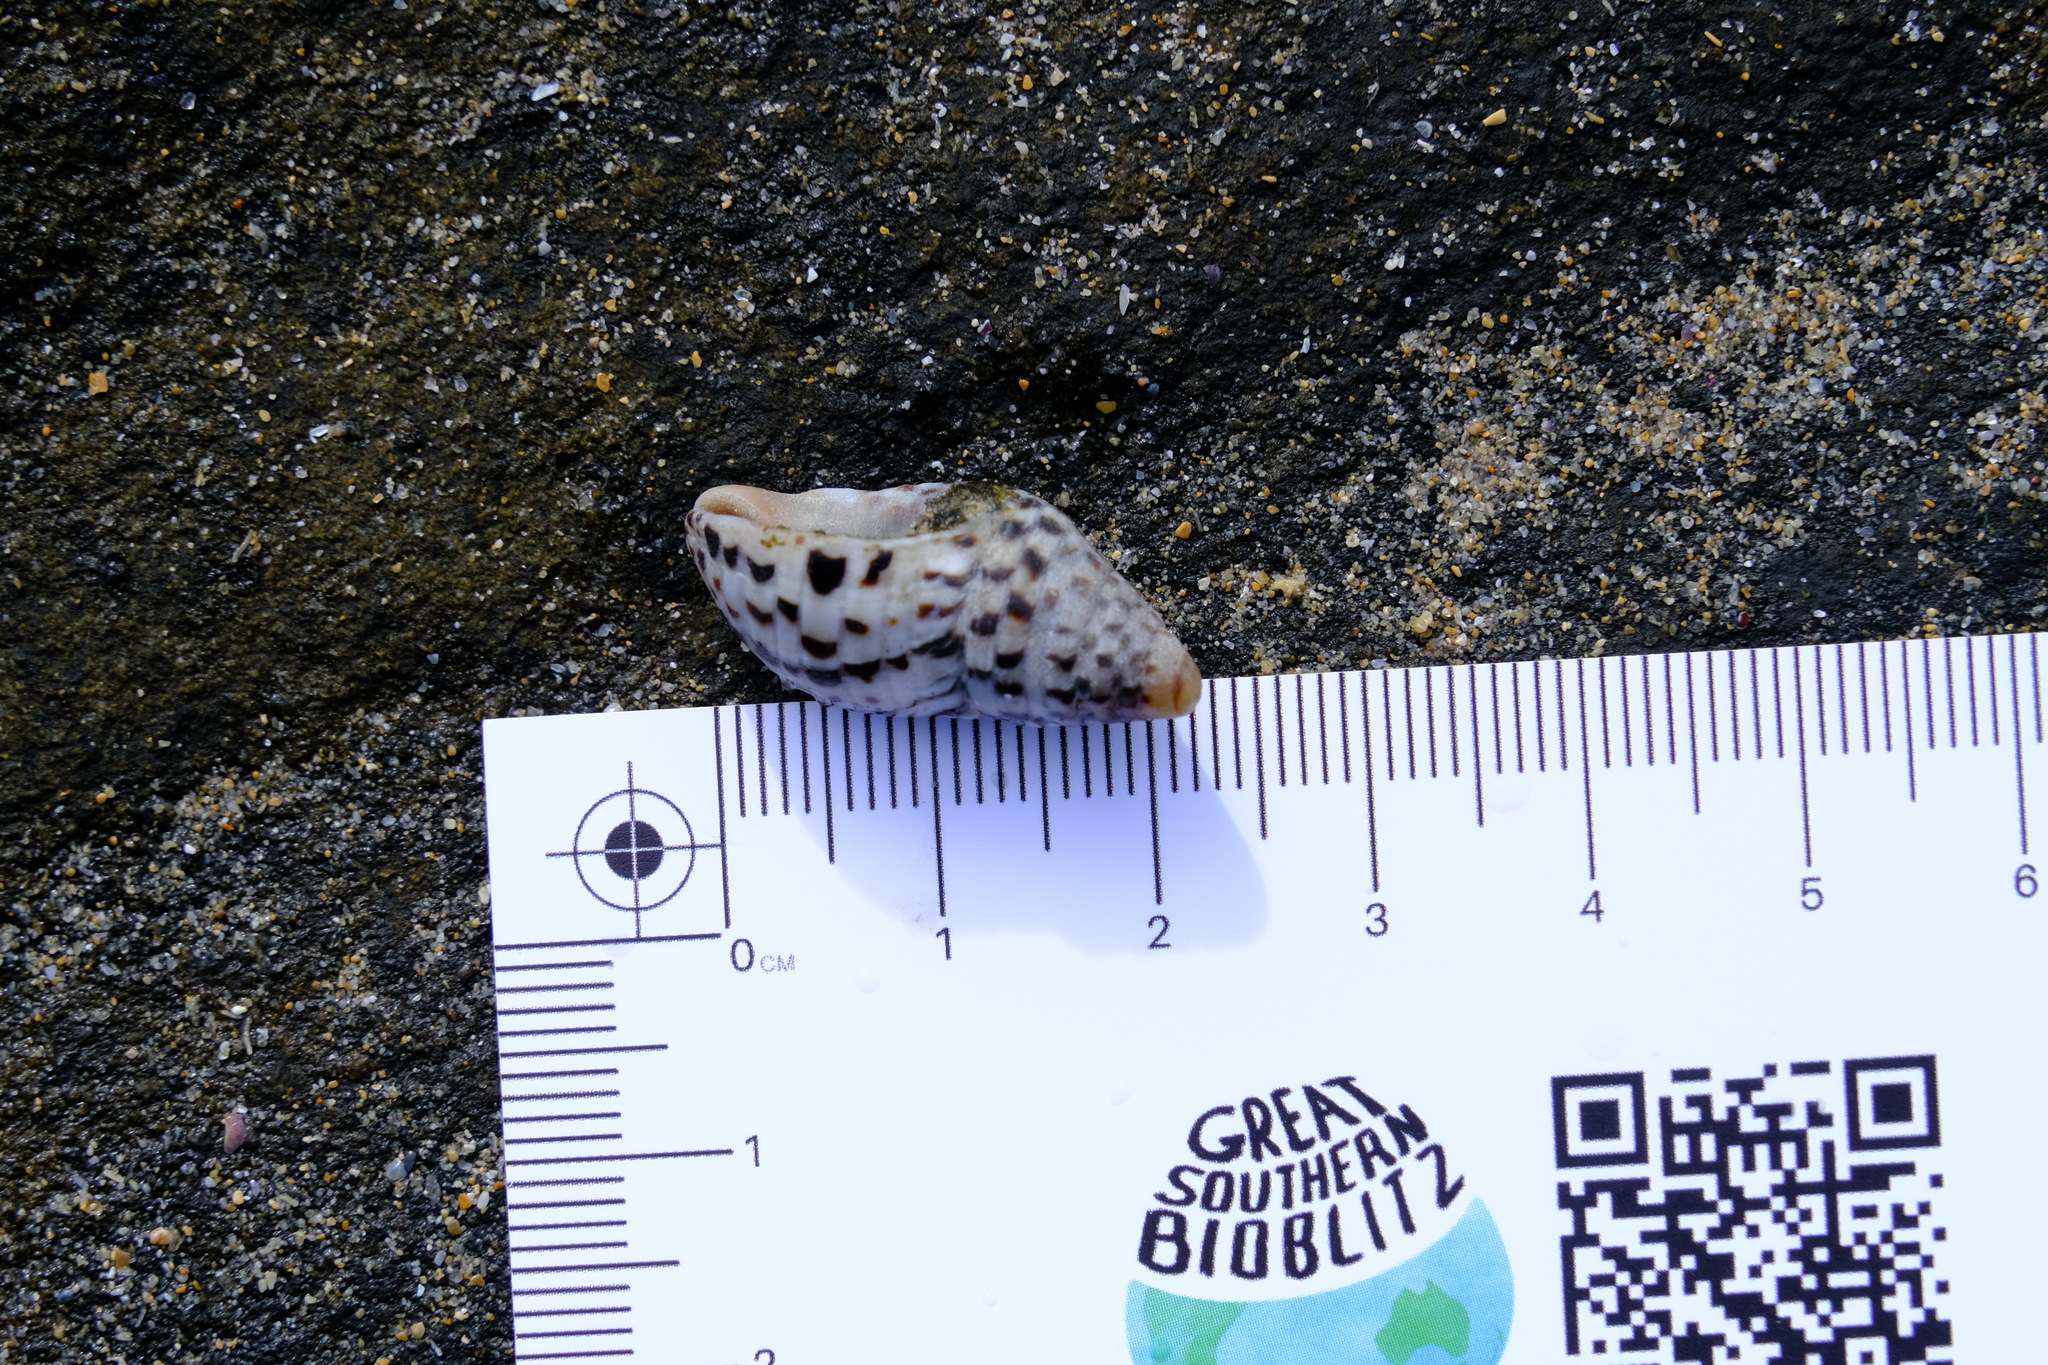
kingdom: Animalia
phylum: Mollusca
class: Gastropoda
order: Neogastropoda
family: Cominellidae
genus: Cominella
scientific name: Cominella lineolata
